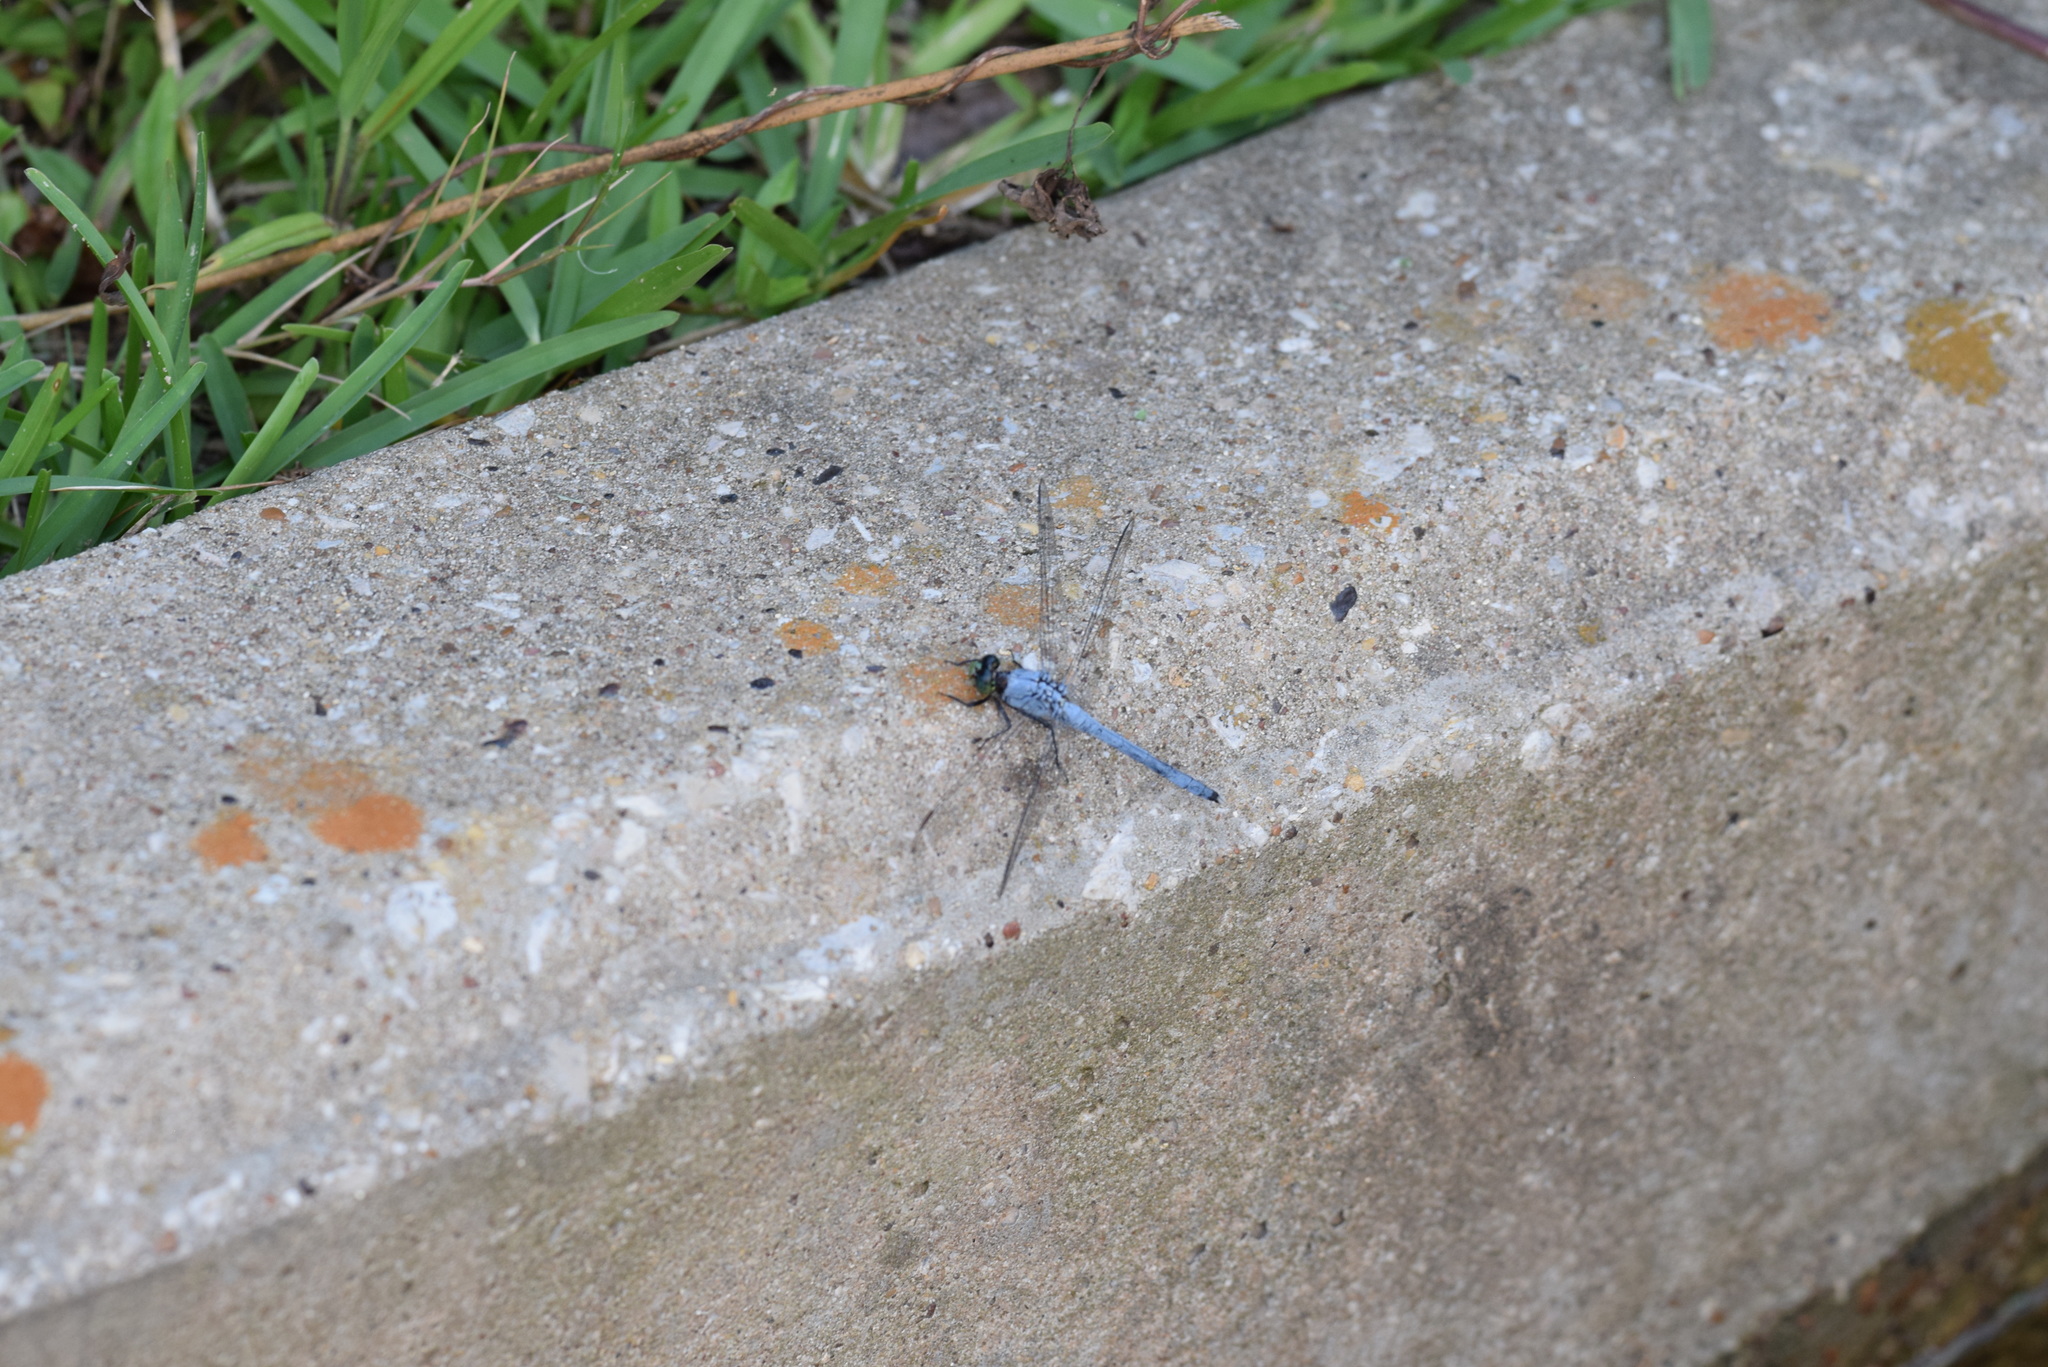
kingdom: Animalia
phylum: Arthropoda
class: Insecta
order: Odonata
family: Libellulidae
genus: Erythemis
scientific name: Erythemis simplicicollis
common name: Eastern pondhawk
